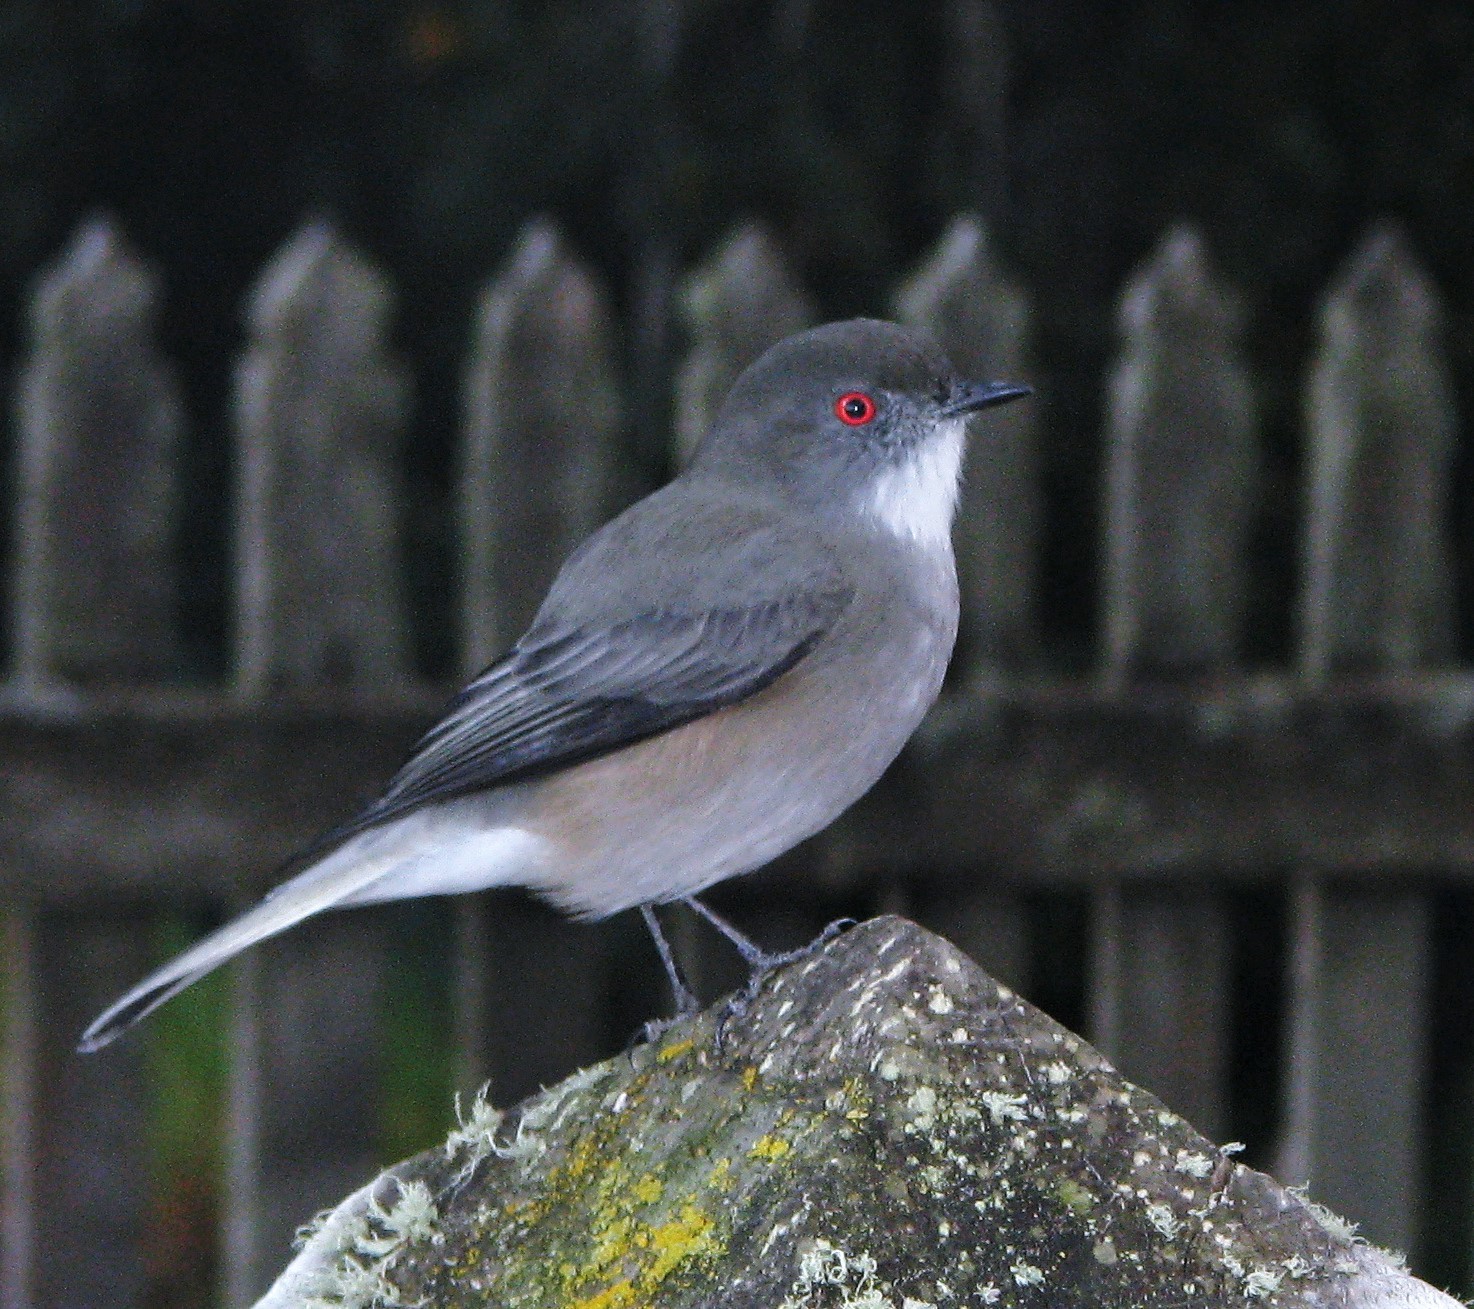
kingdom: Animalia
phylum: Chordata
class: Aves
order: Passeriformes
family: Tyrannidae
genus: Xolmis
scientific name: Xolmis pyrope
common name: Fire-eyed diucon
